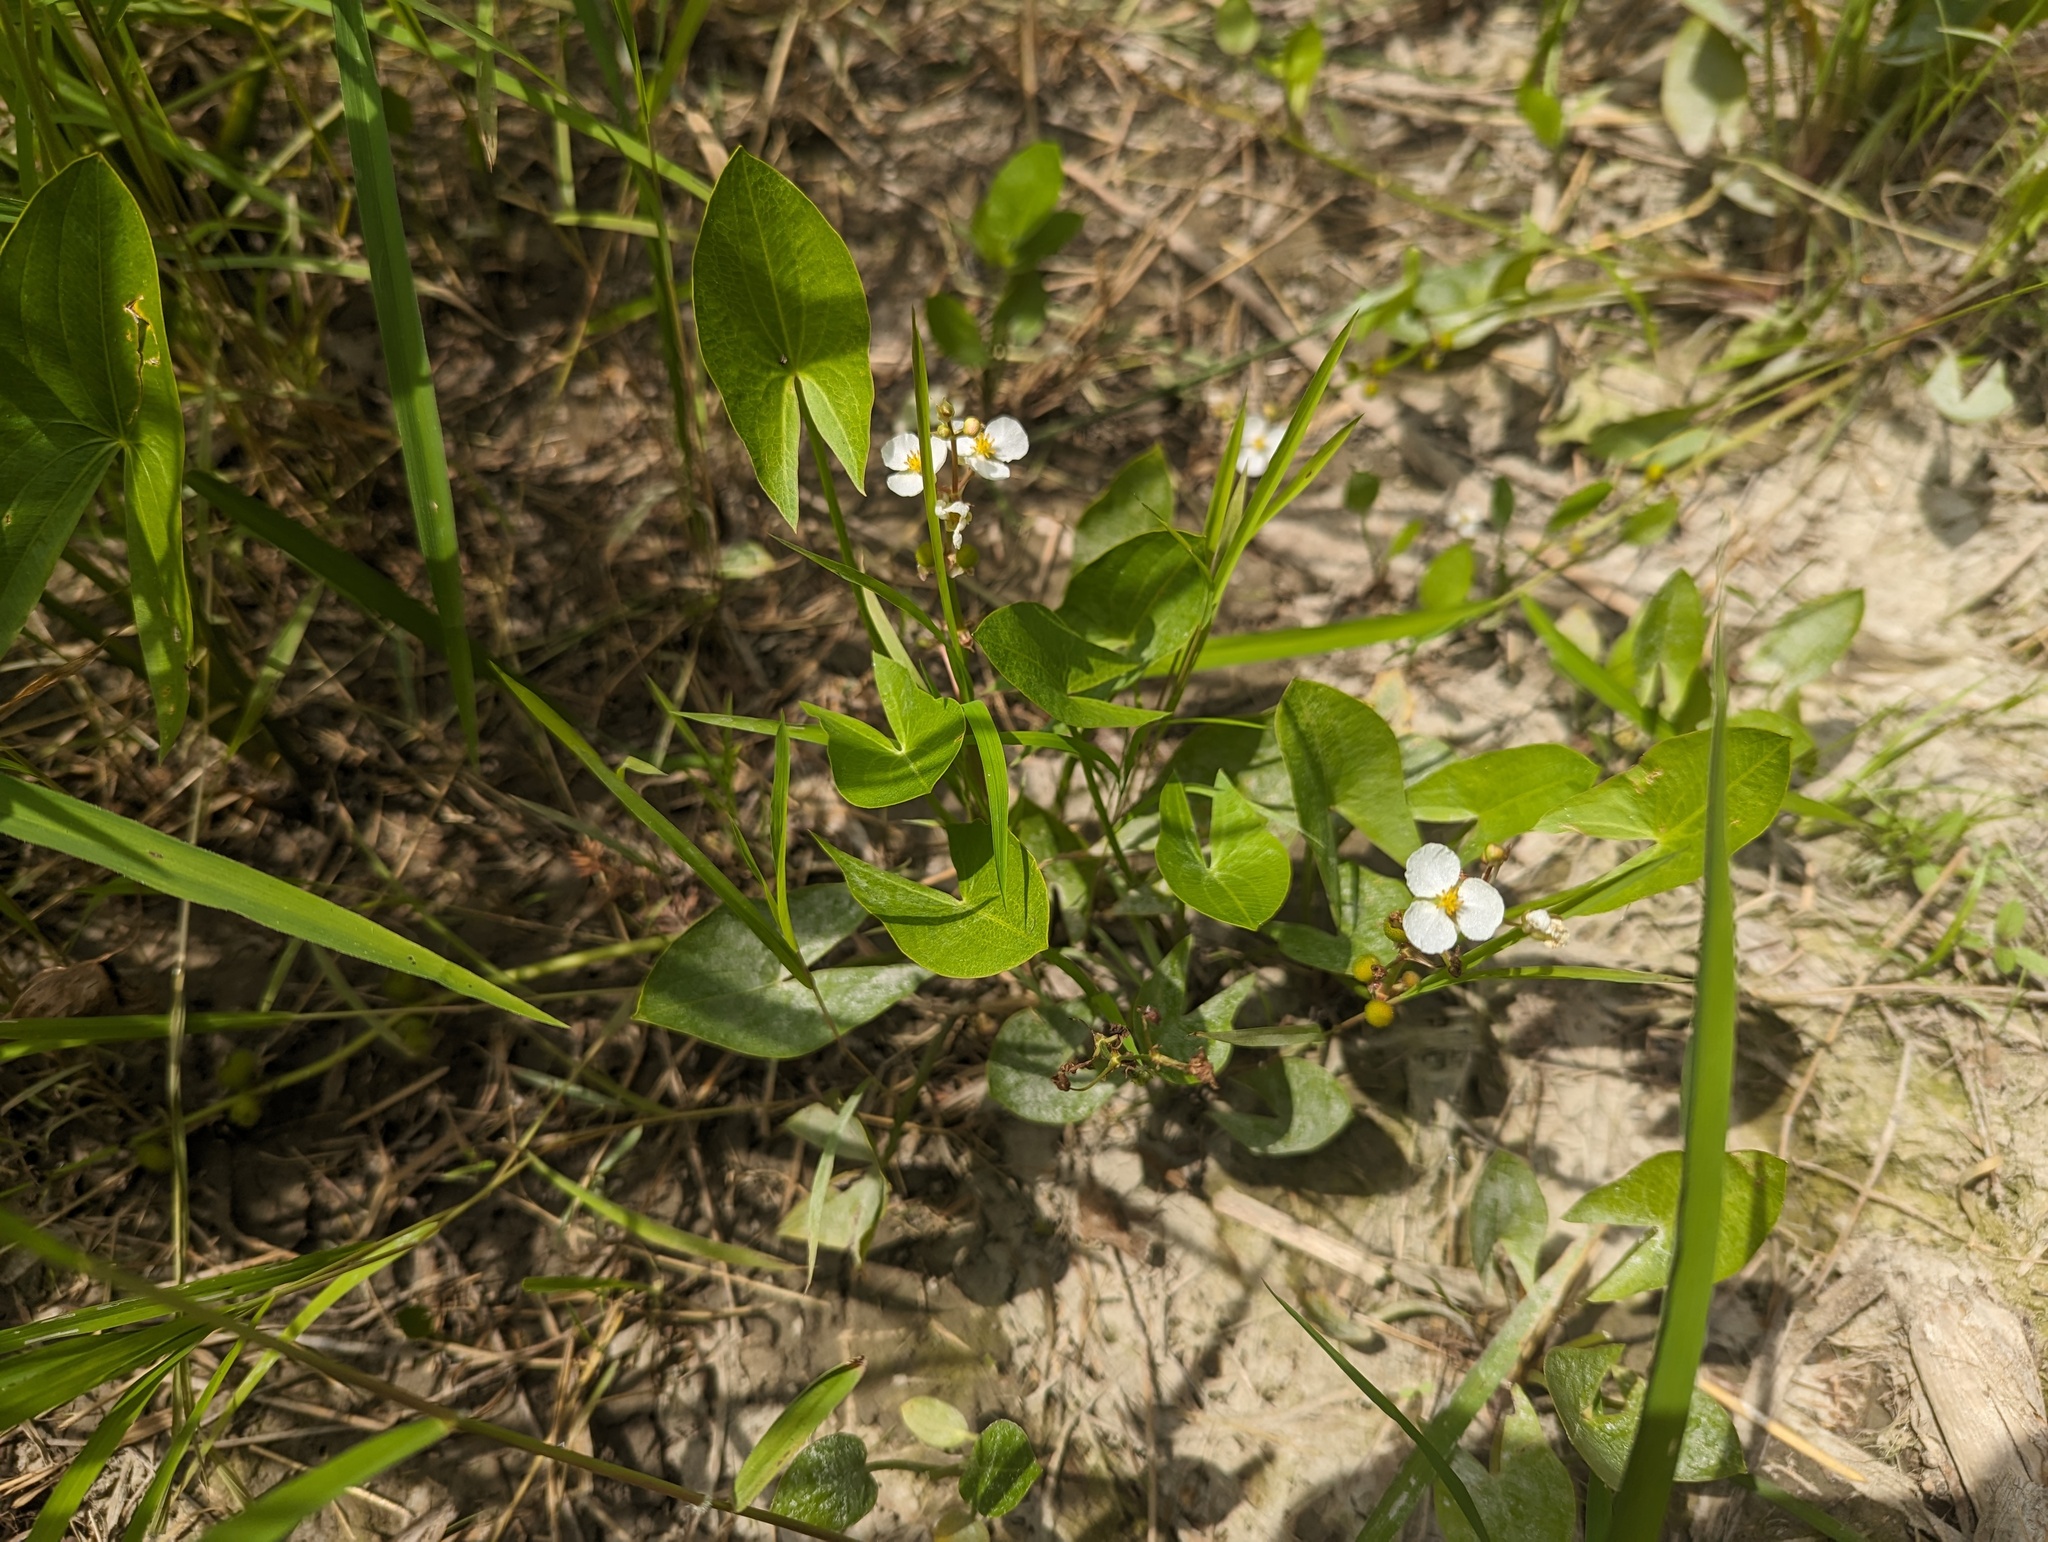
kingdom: Plantae
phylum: Tracheophyta
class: Liliopsida
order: Alismatales
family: Alismataceae
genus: Sagittaria
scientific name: Sagittaria cuneata
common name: Northern arrowhead
